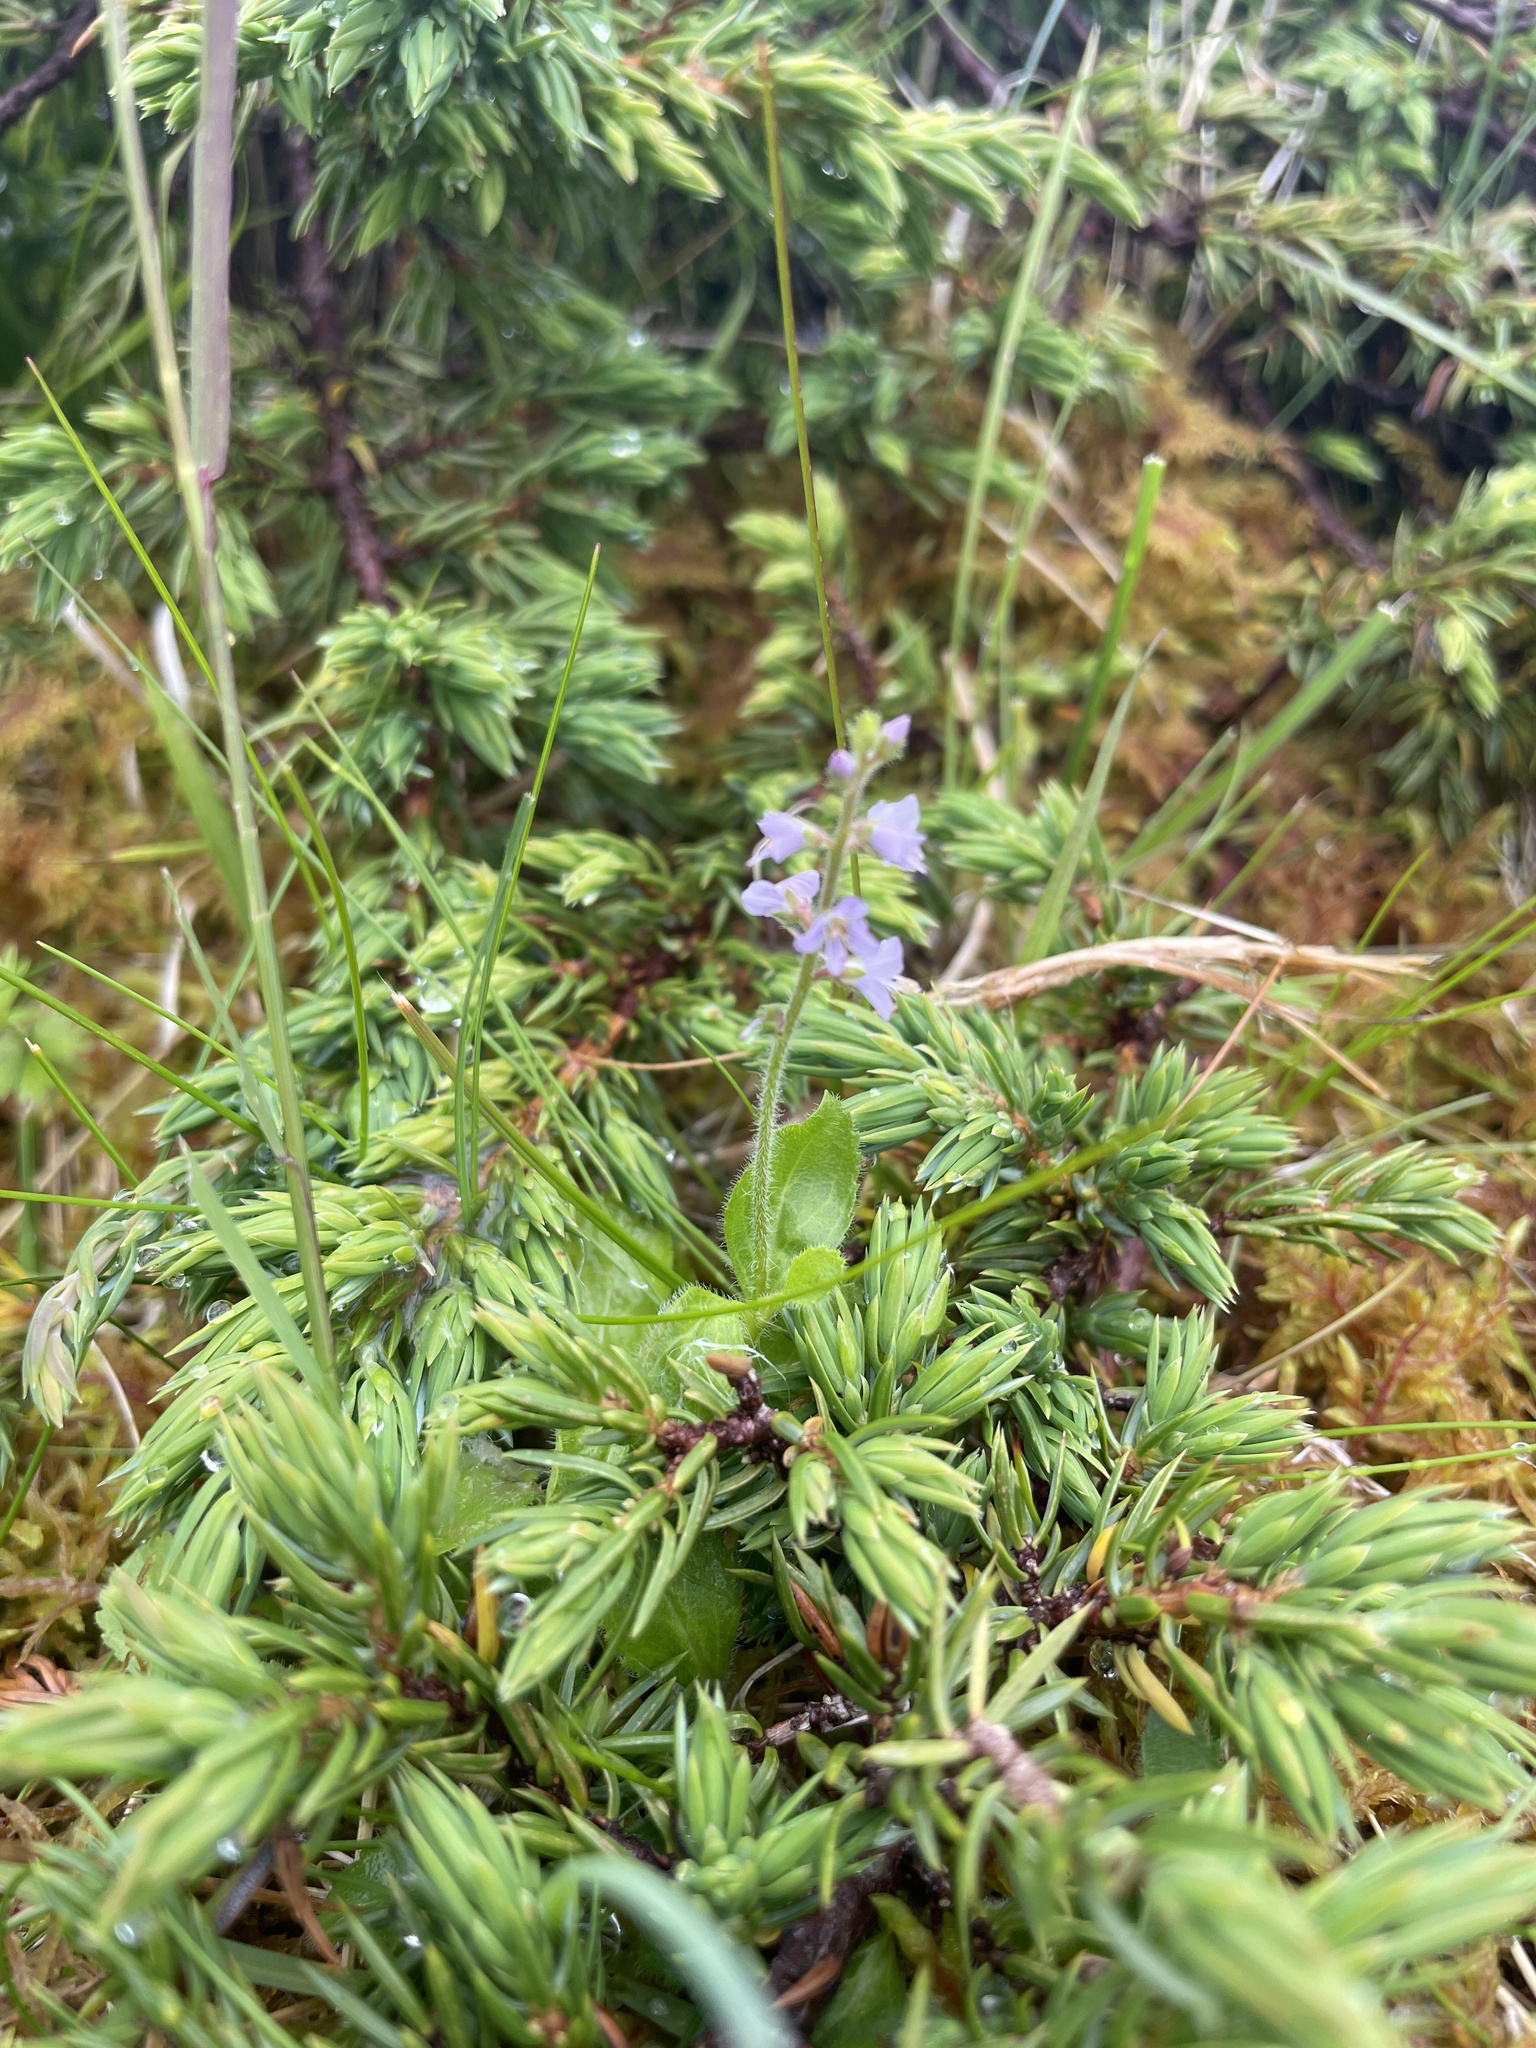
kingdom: Plantae
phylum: Tracheophyta
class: Magnoliopsida
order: Lamiales
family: Plantaginaceae
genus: Veronica
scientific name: Veronica officinalis
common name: Common speedwell
